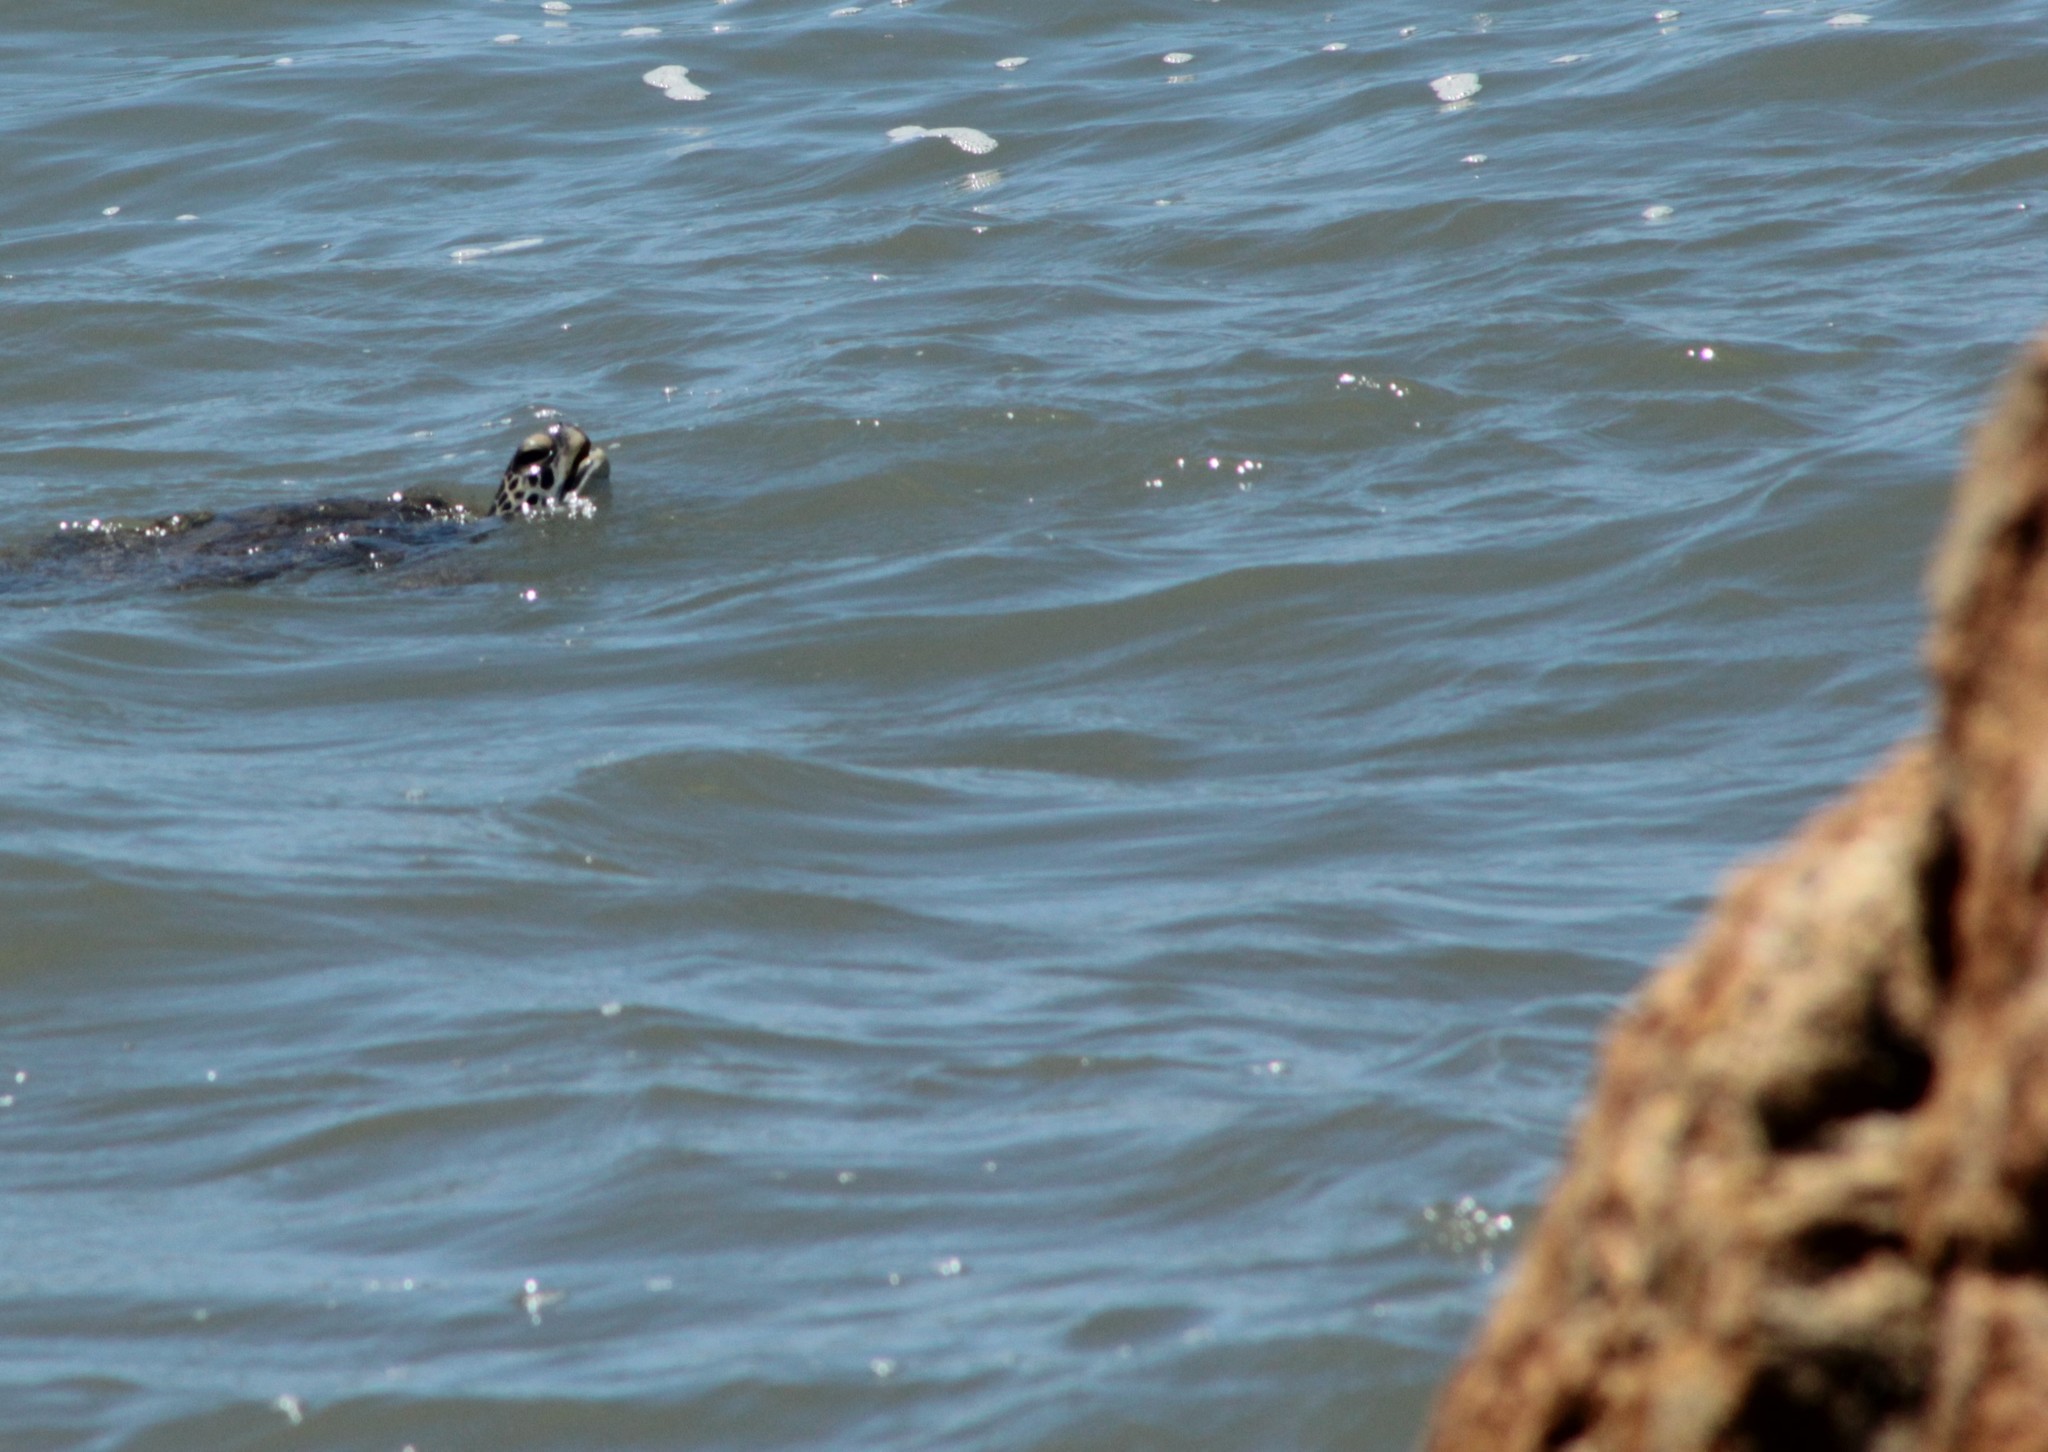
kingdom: Animalia
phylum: Chordata
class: Testudines
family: Cheloniidae
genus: Chelonia
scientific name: Chelonia mydas
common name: Green turtle
